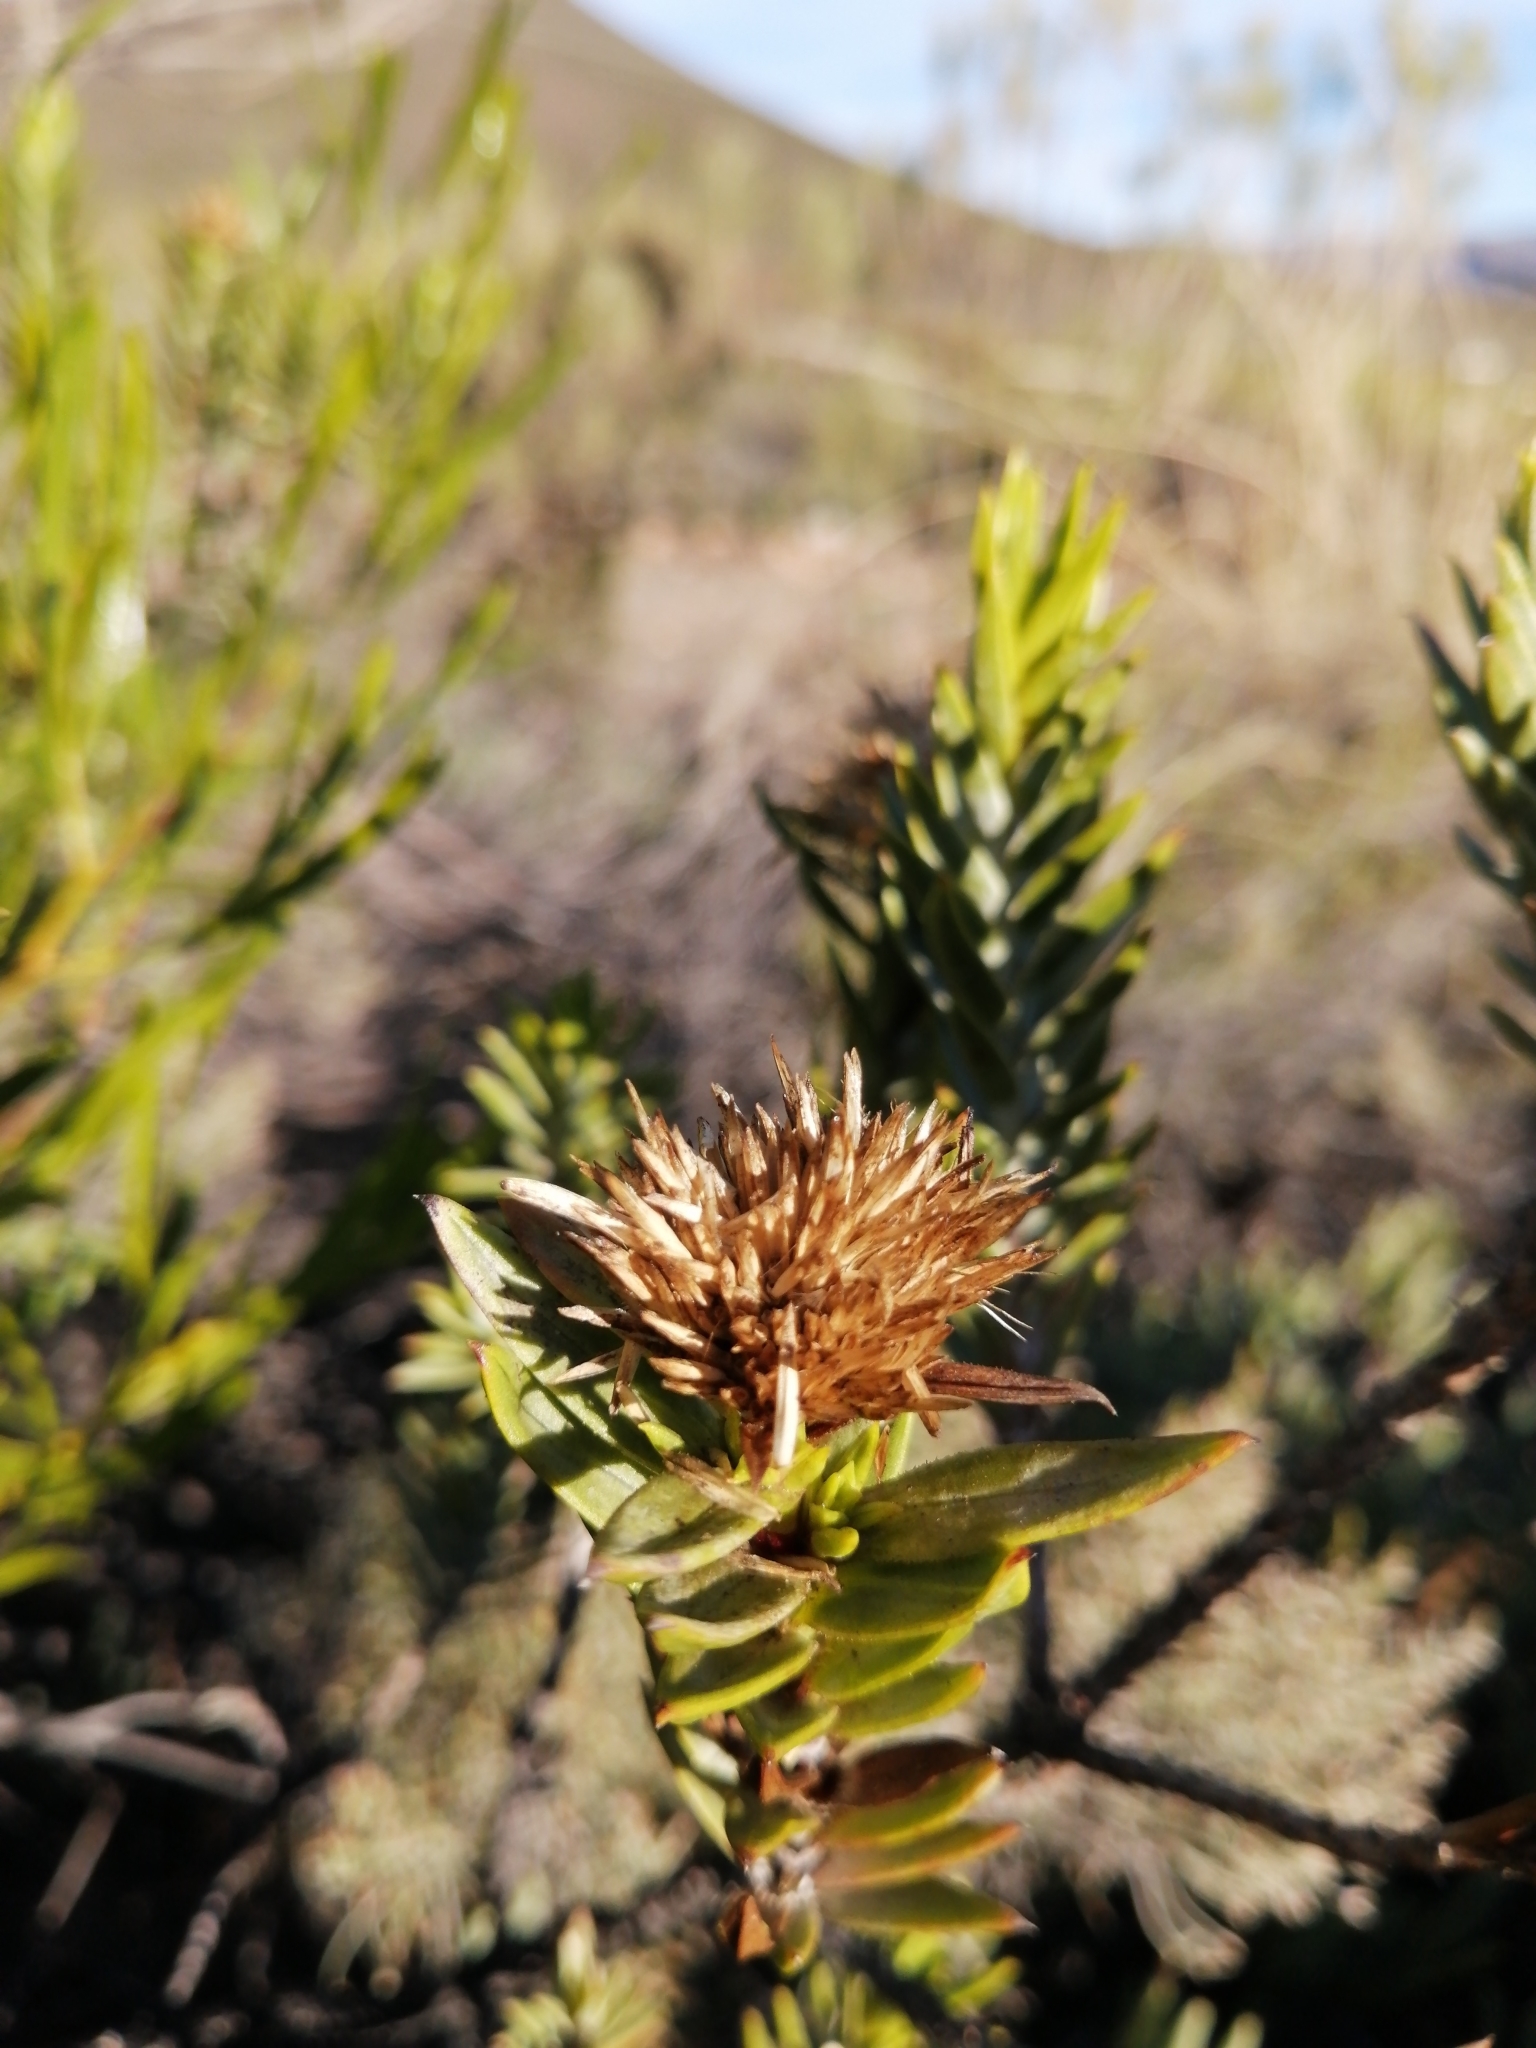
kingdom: Plantae
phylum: Tracheophyta
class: Magnoliopsida
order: Asterales
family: Asteraceae
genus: Pteronia
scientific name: Pteronia fasciculata
